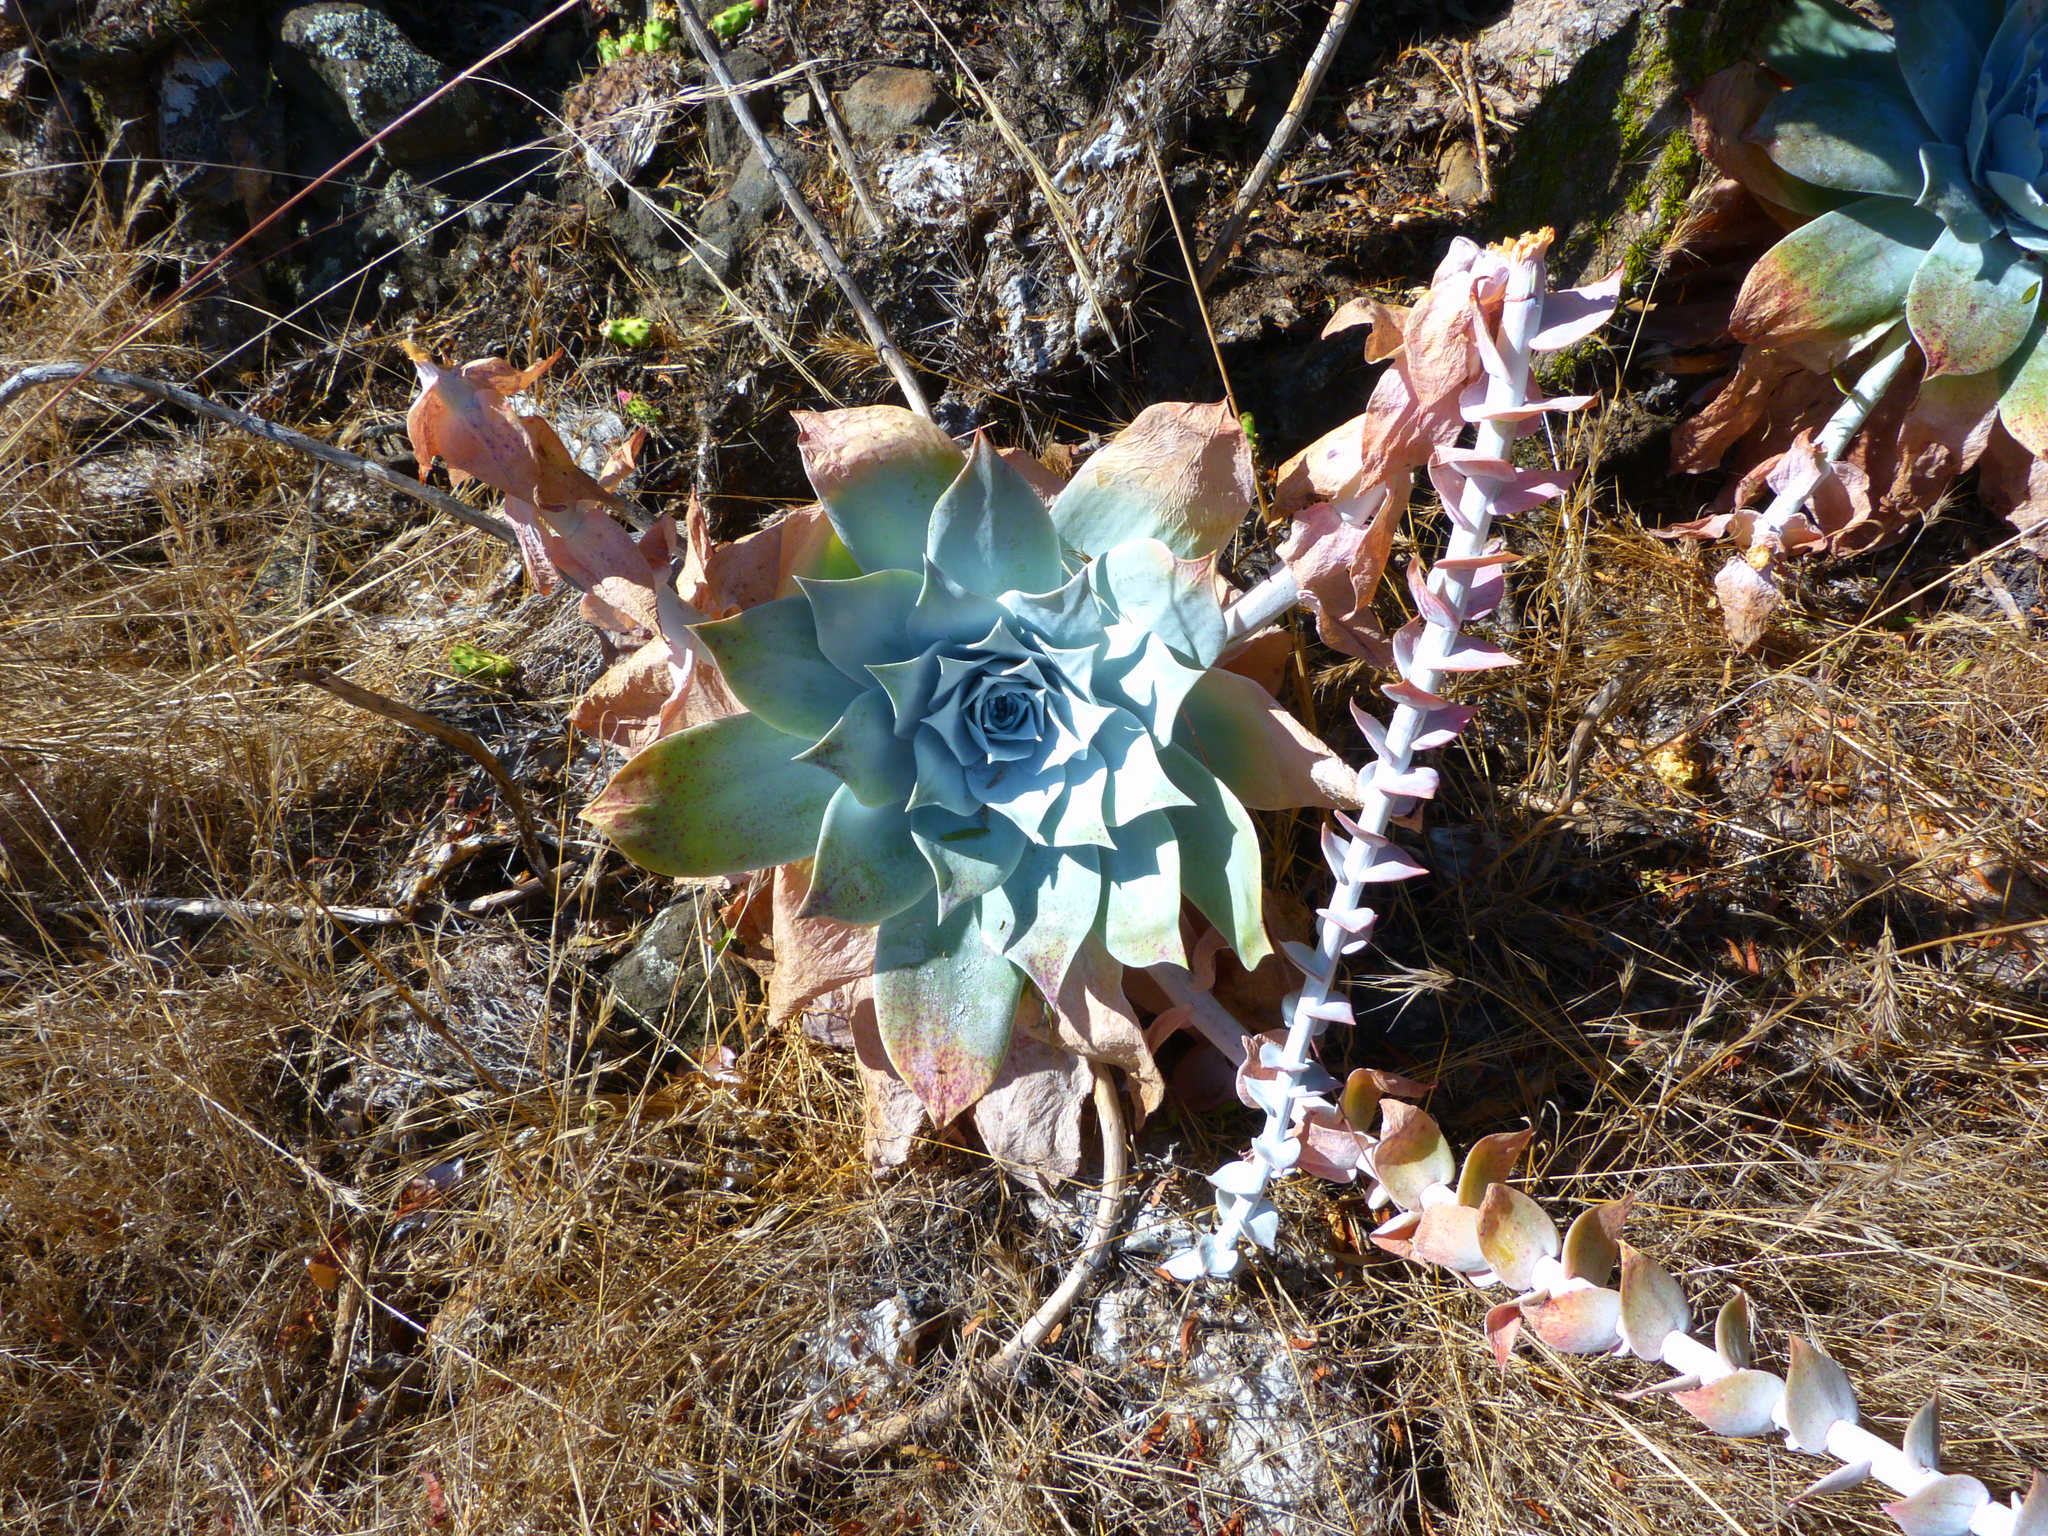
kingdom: Plantae
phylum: Tracheophyta
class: Magnoliopsida
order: Saxifragales
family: Crassulaceae
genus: Dudleya
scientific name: Dudleya pulverulenta
